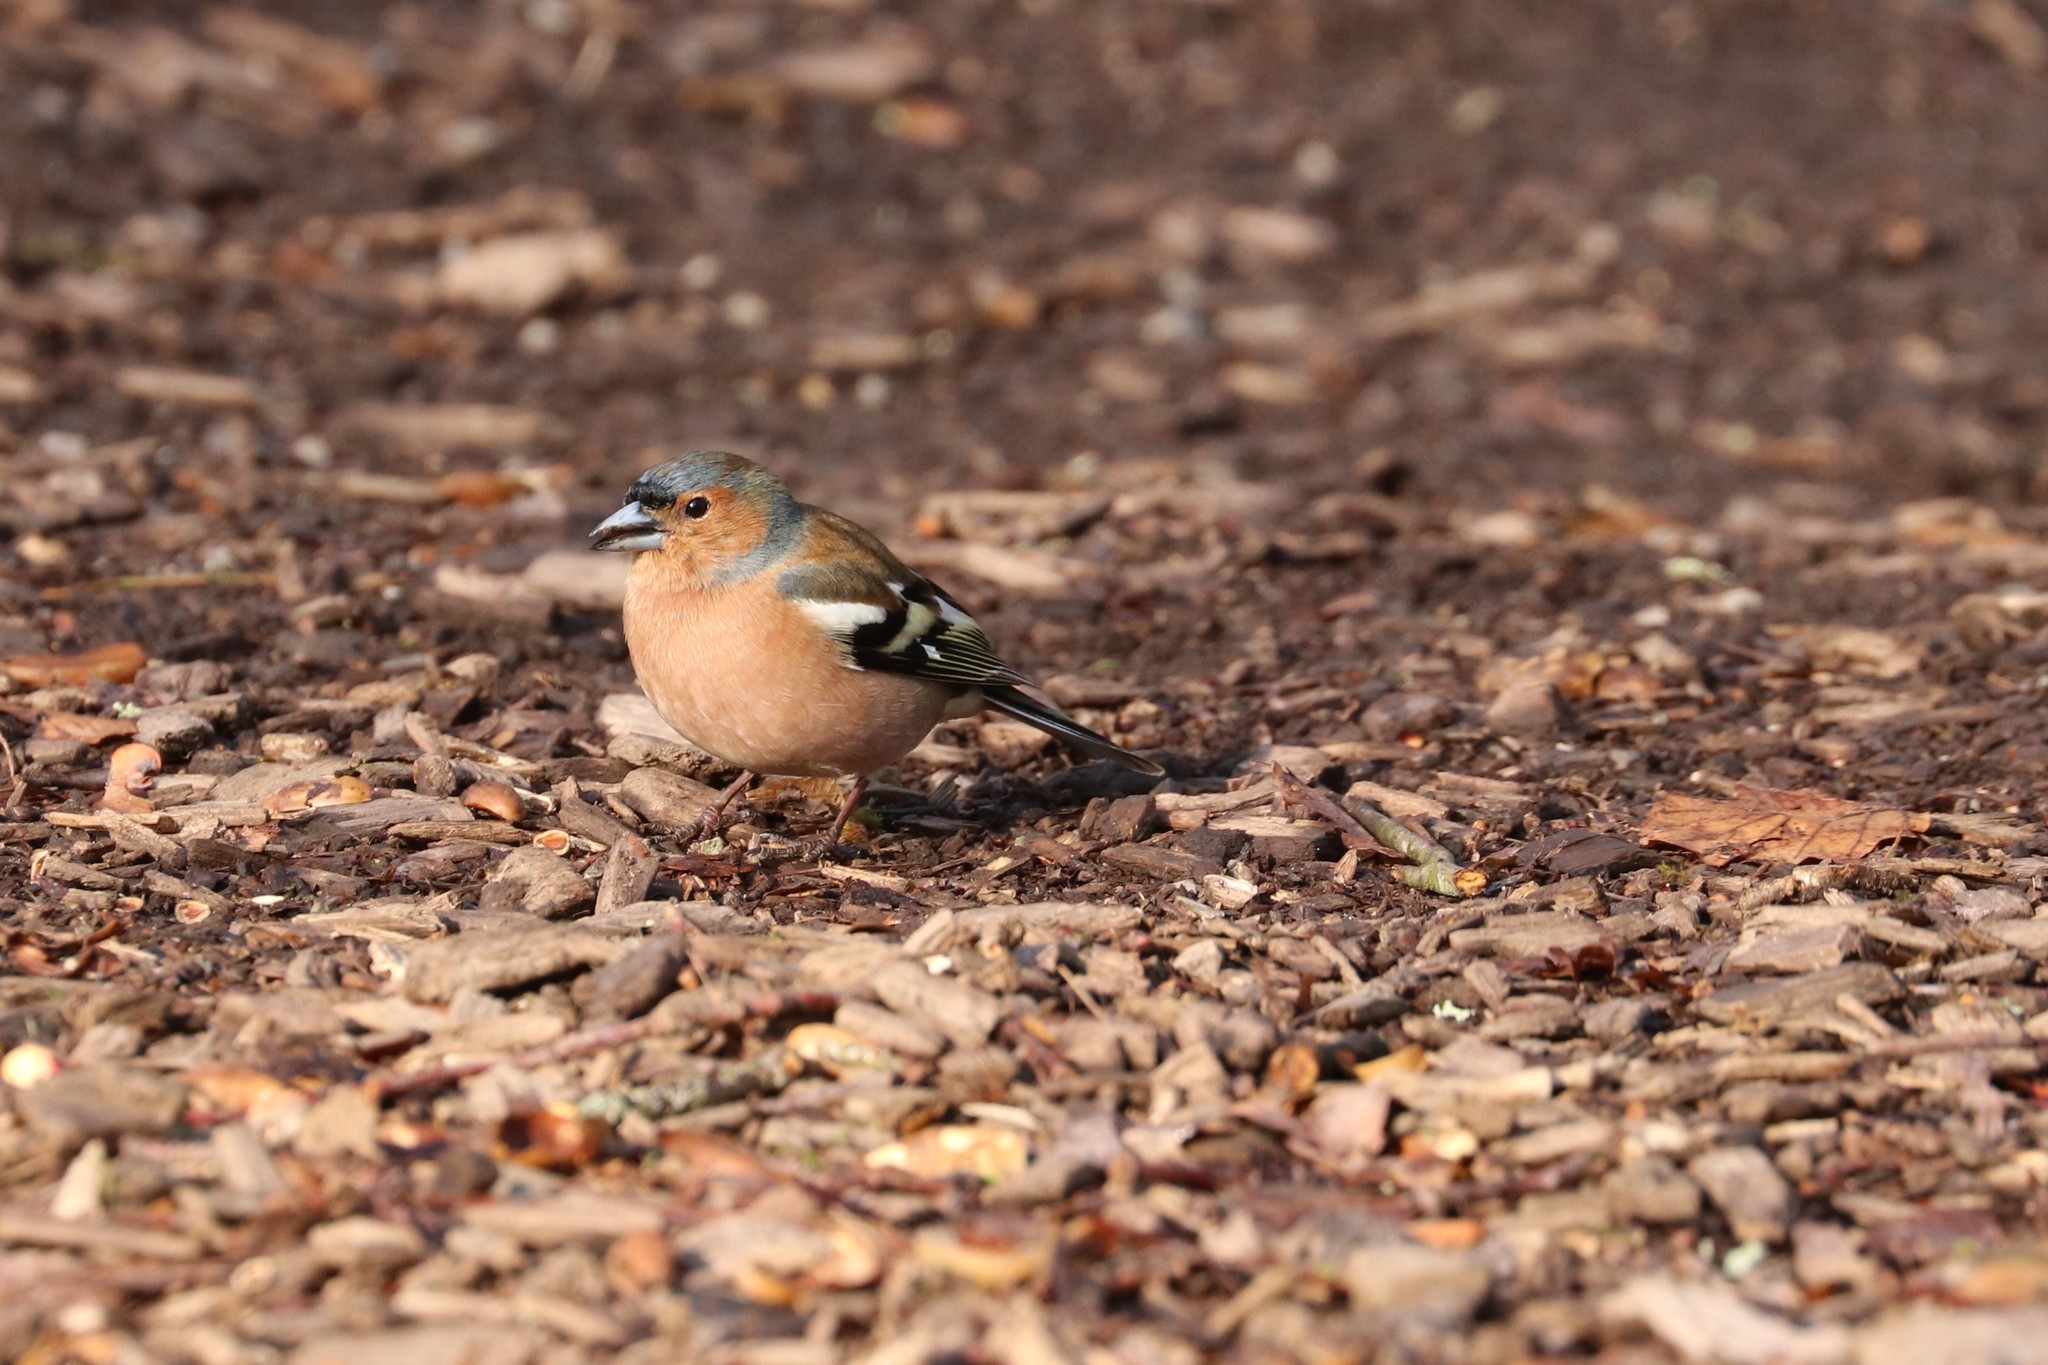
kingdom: Animalia
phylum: Chordata
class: Aves
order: Passeriformes
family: Fringillidae
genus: Fringilla
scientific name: Fringilla coelebs
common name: Common chaffinch
